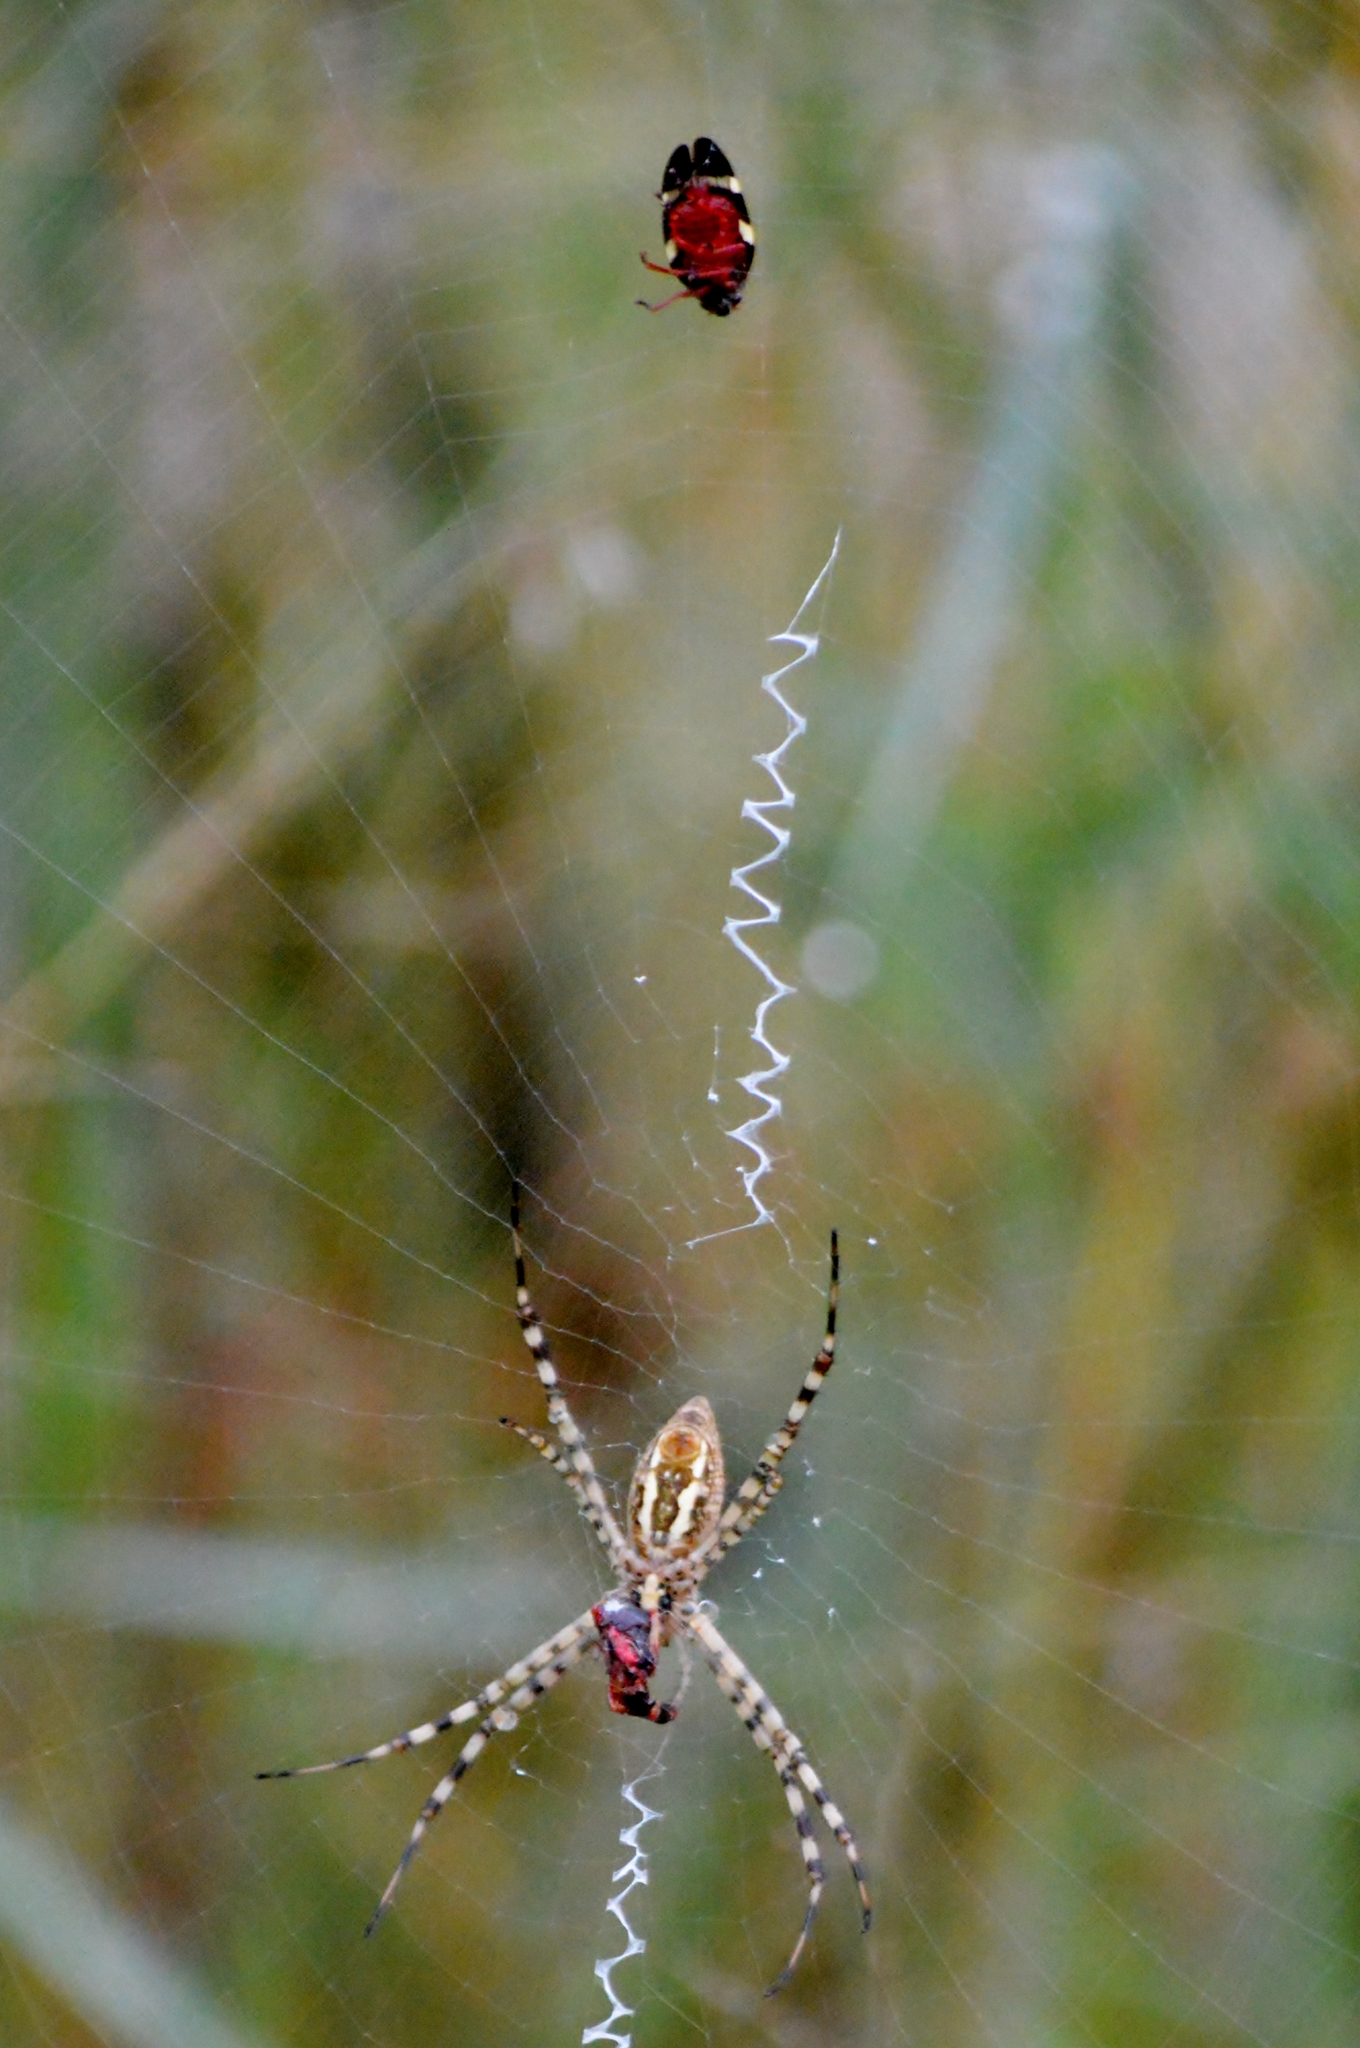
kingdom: Animalia
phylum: Arthropoda
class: Arachnida
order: Araneae
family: Araneidae
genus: Argiope
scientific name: Argiope trifasciata
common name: Banded garden spider
